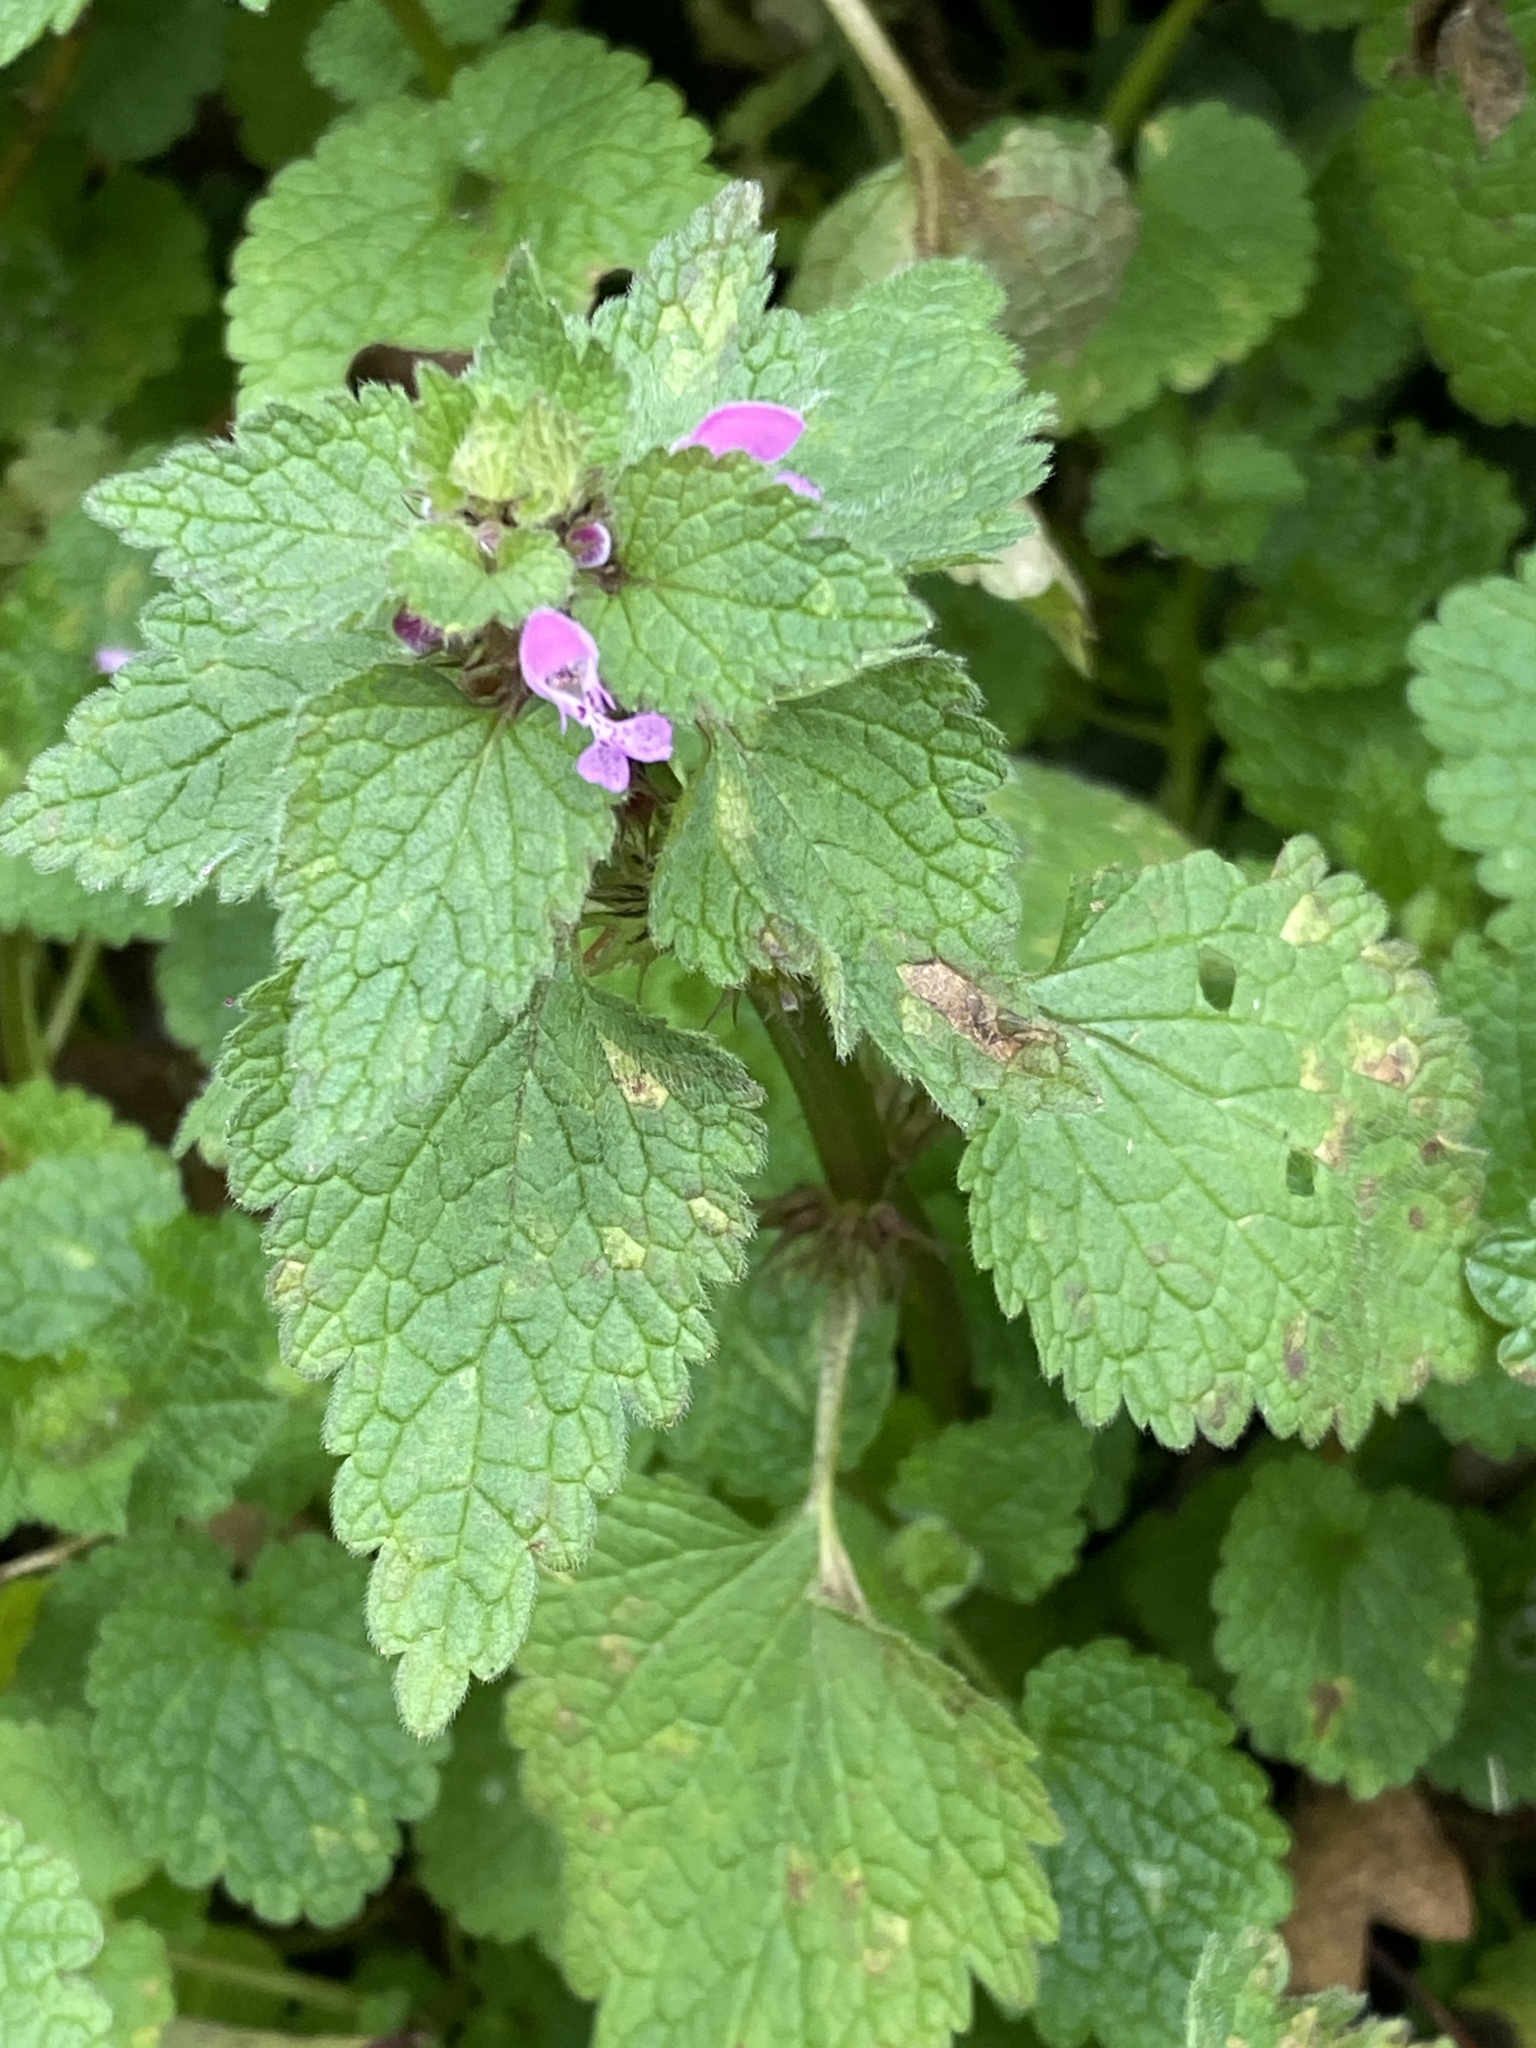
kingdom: Plantae
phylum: Tracheophyta
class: Magnoliopsida
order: Lamiales
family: Lamiaceae
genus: Lamium
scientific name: Lamium purpureum
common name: Red dead-nettle
